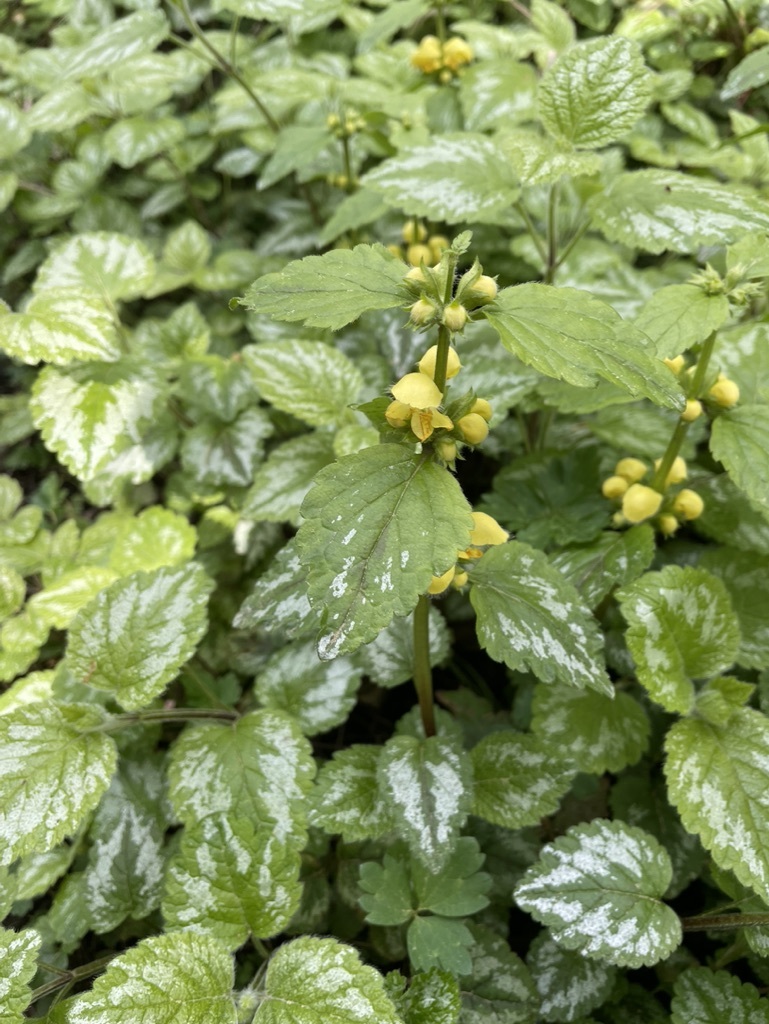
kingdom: Plantae
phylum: Tracheophyta
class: Magnoliopsida
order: Lamiales
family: Lamiaceae
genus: Lamium
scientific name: Lamium galeobdolon
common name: Yellow archangel
